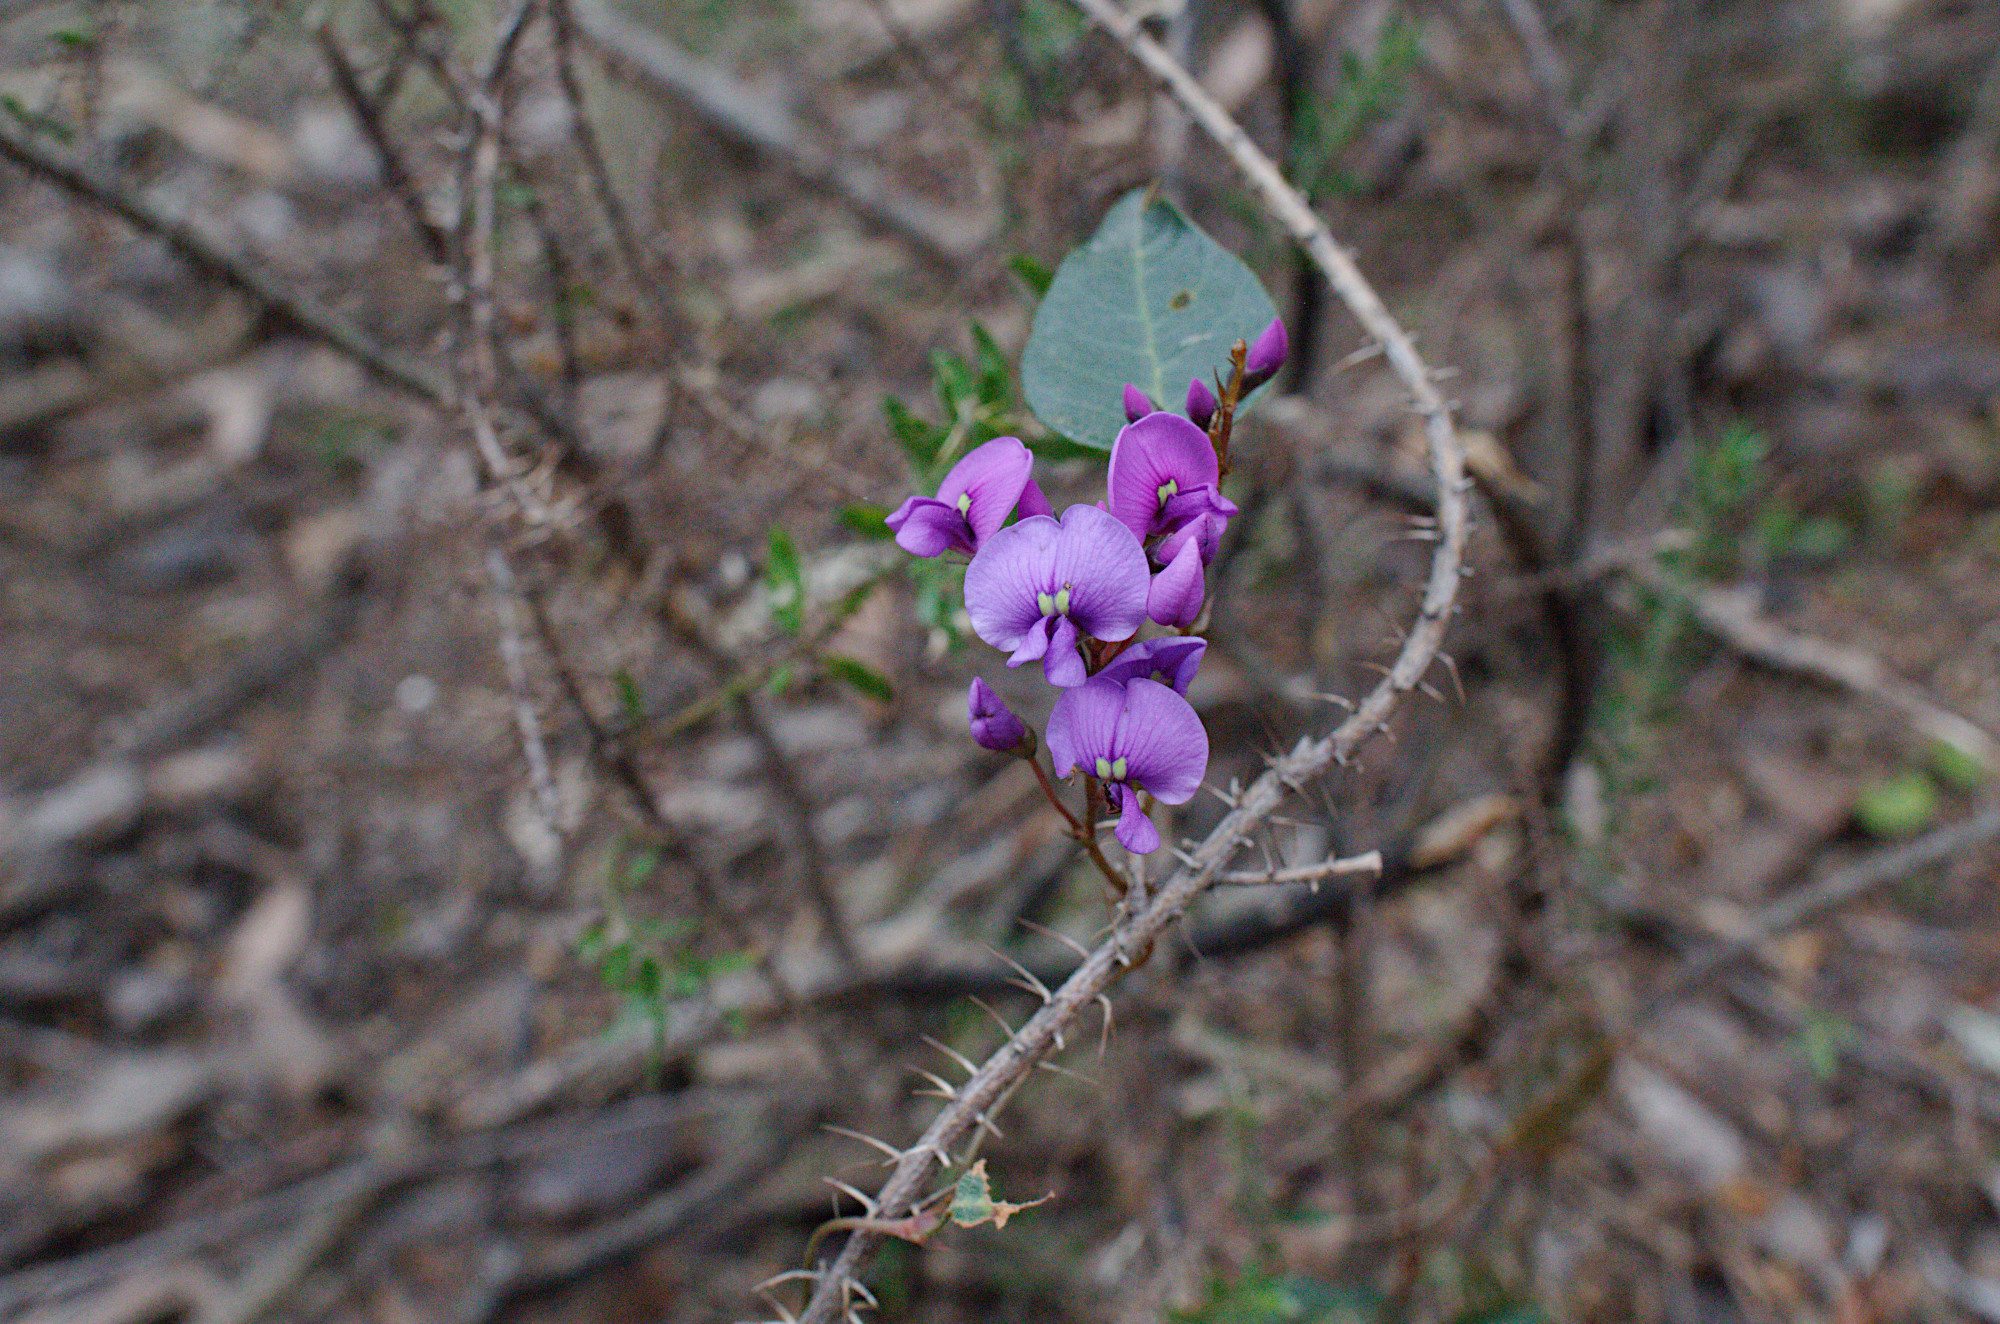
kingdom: Plantae
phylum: Tracheophyta
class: Magnoliopsida
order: Fabales
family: Fabaceae
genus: Hardenbergia
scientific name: Hardenbergia violacea
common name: Coral-pea
